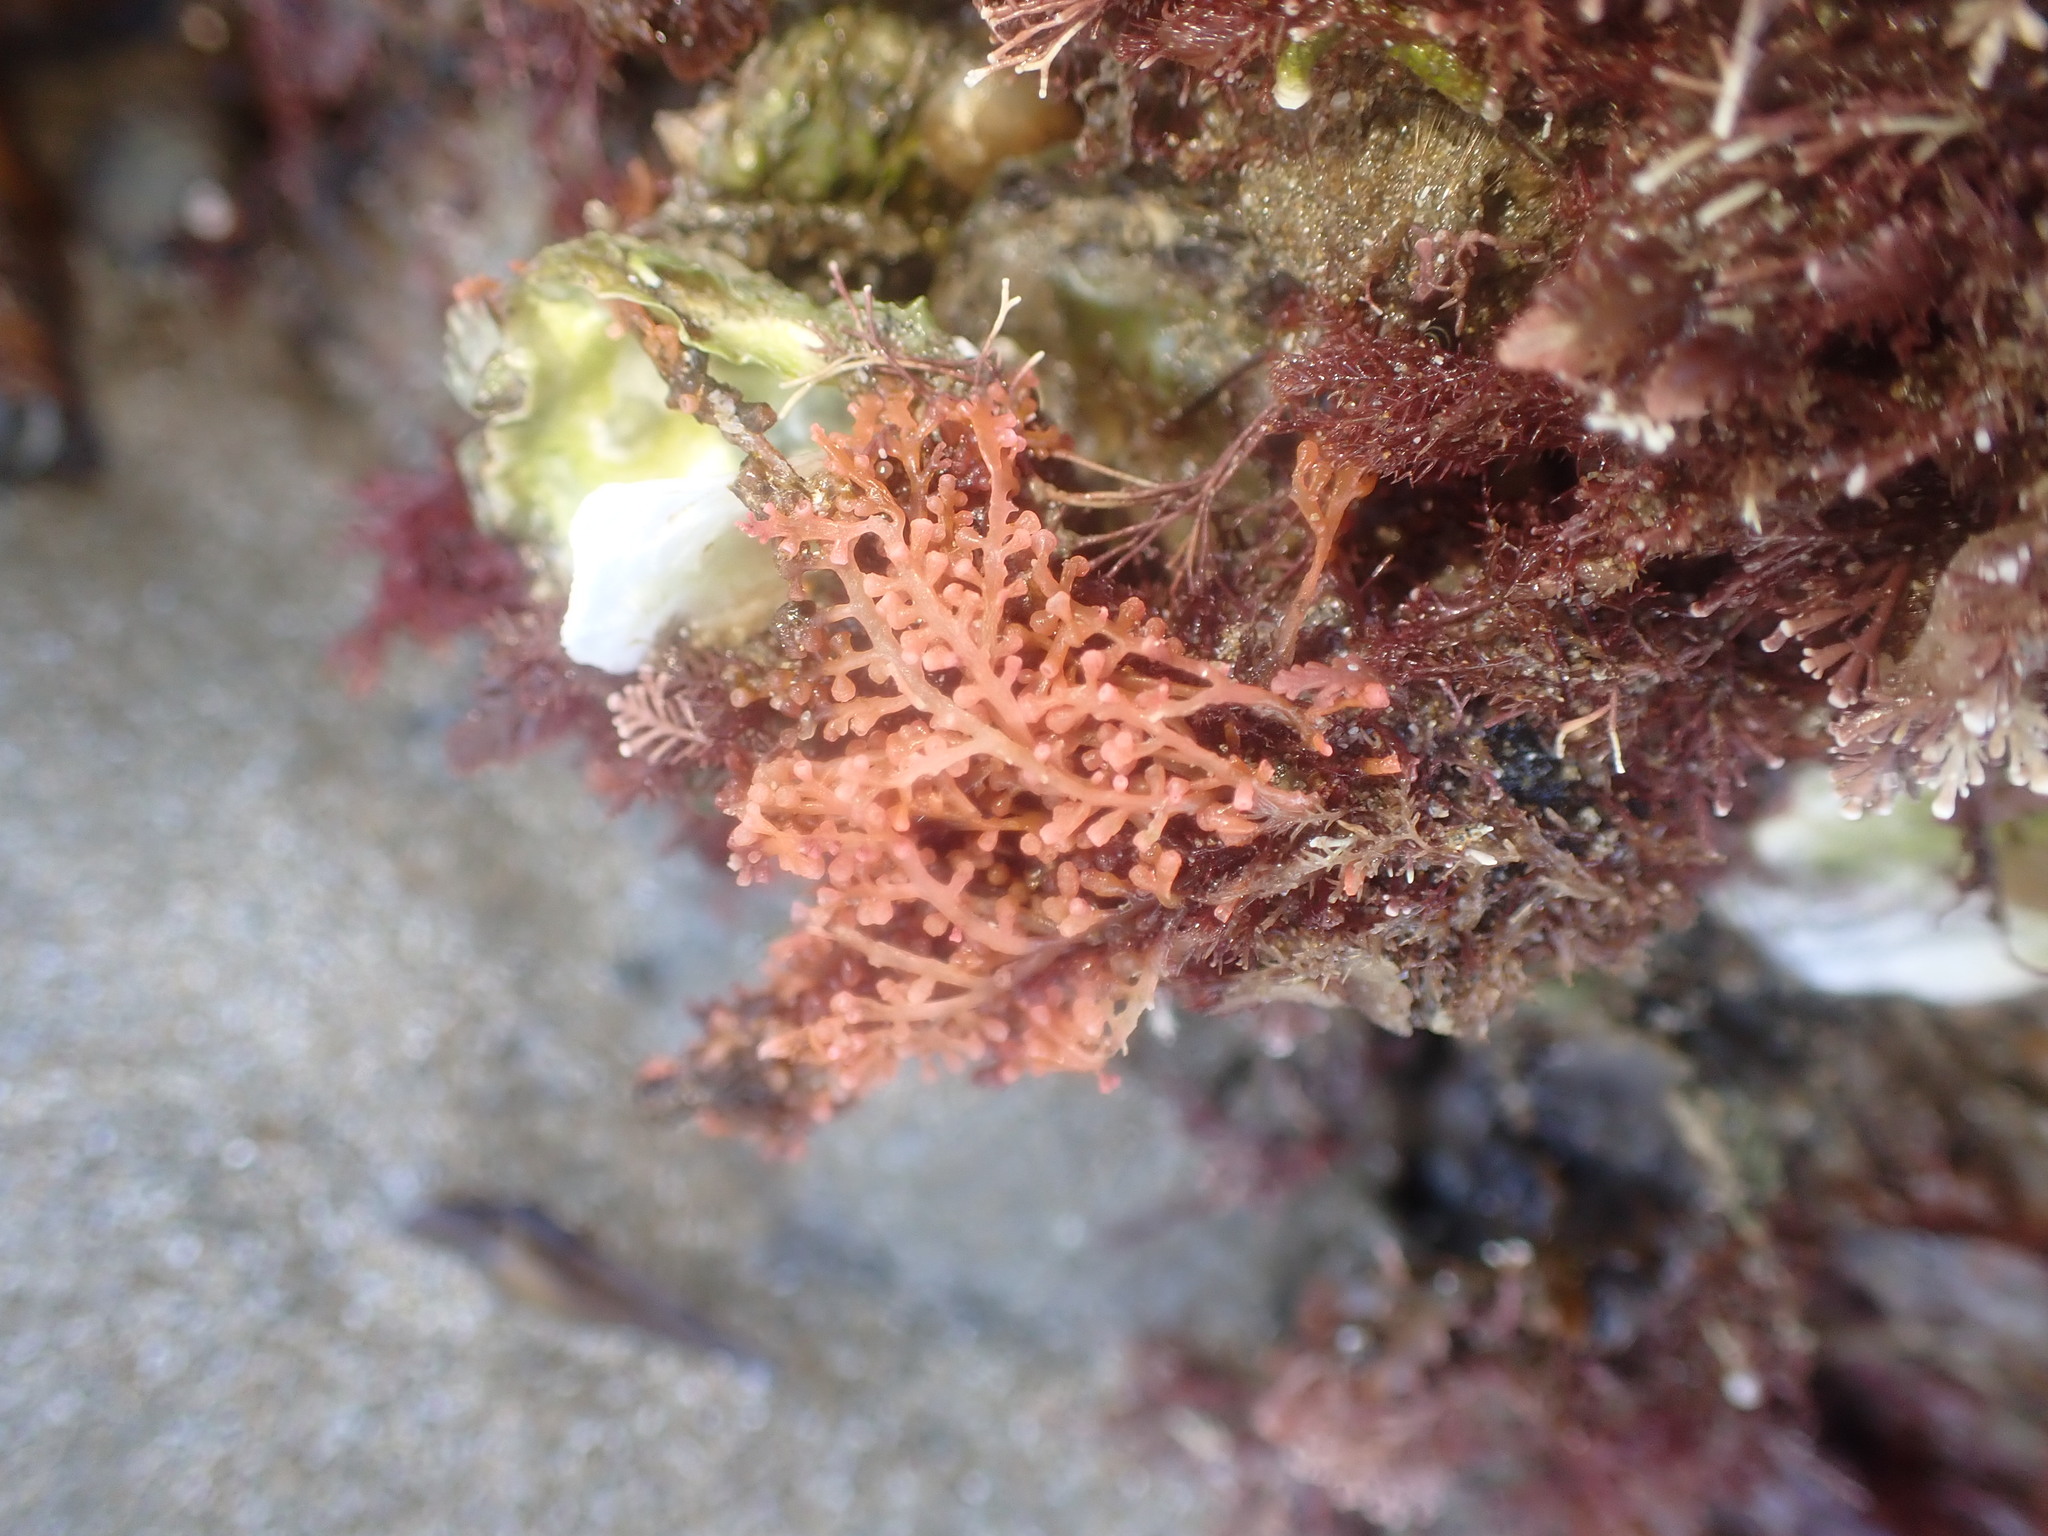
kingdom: Plantae
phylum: Rhodophyta
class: Florideophyceae
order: Ceramiales
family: Rhodomelaceae
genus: Laurencia
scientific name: Laurencia thyrsifera
